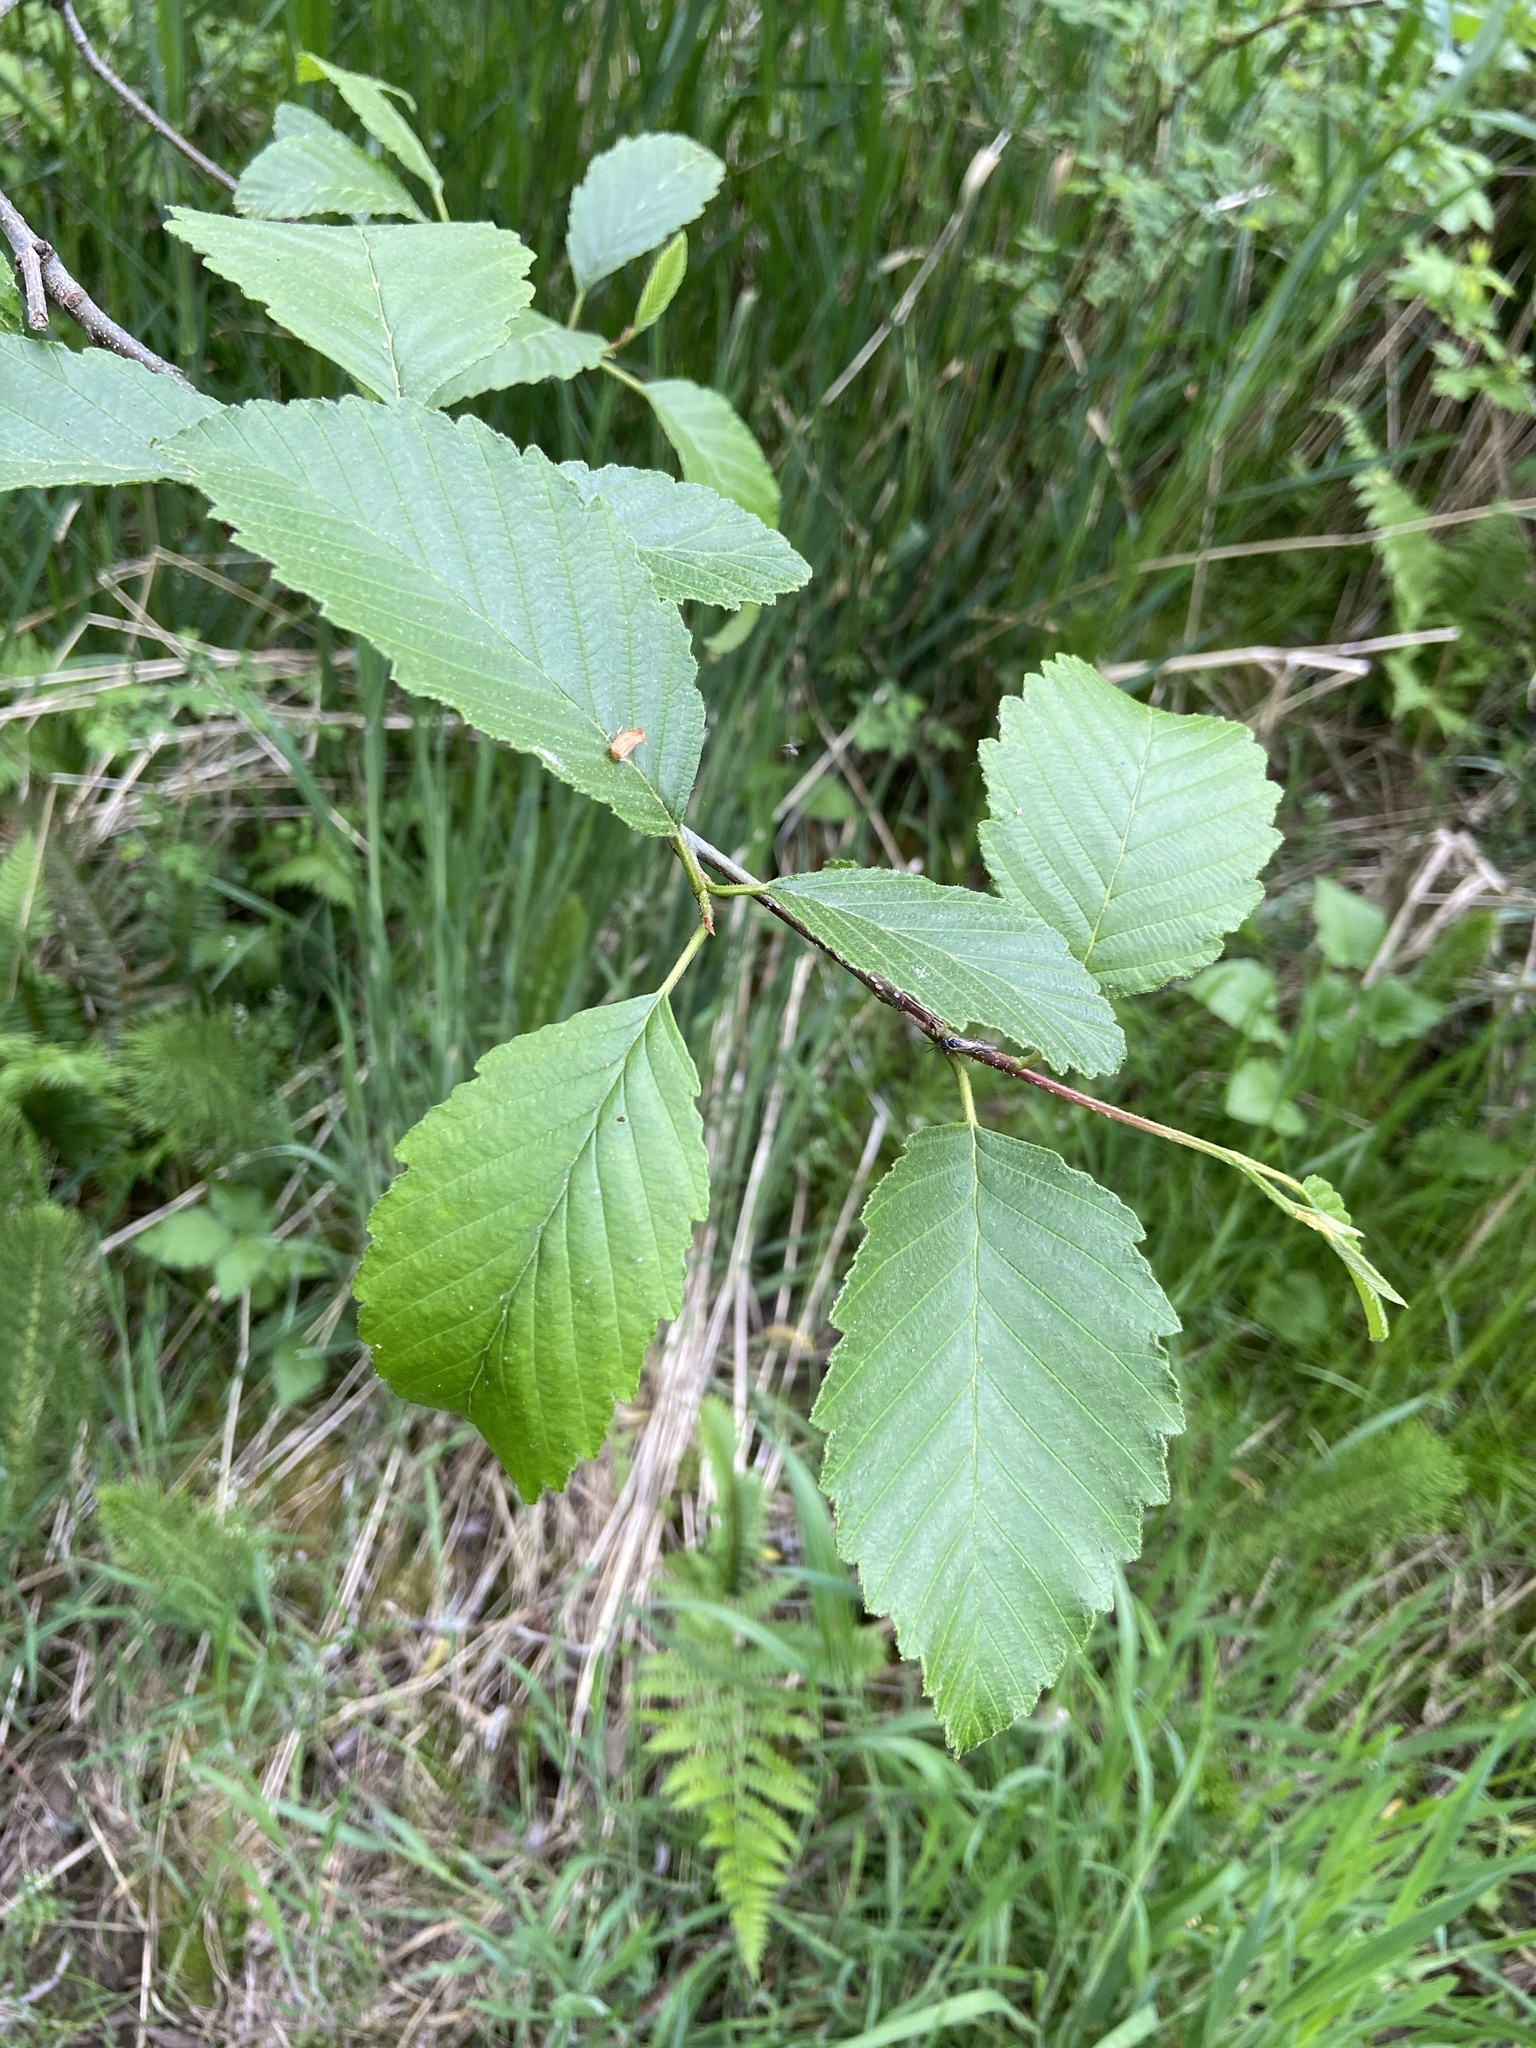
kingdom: Plantae
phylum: Tracheophyta
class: Magnoliopsida
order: Fagales
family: Betulaceae
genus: Alnus
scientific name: Alnus rubra
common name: Red alder
